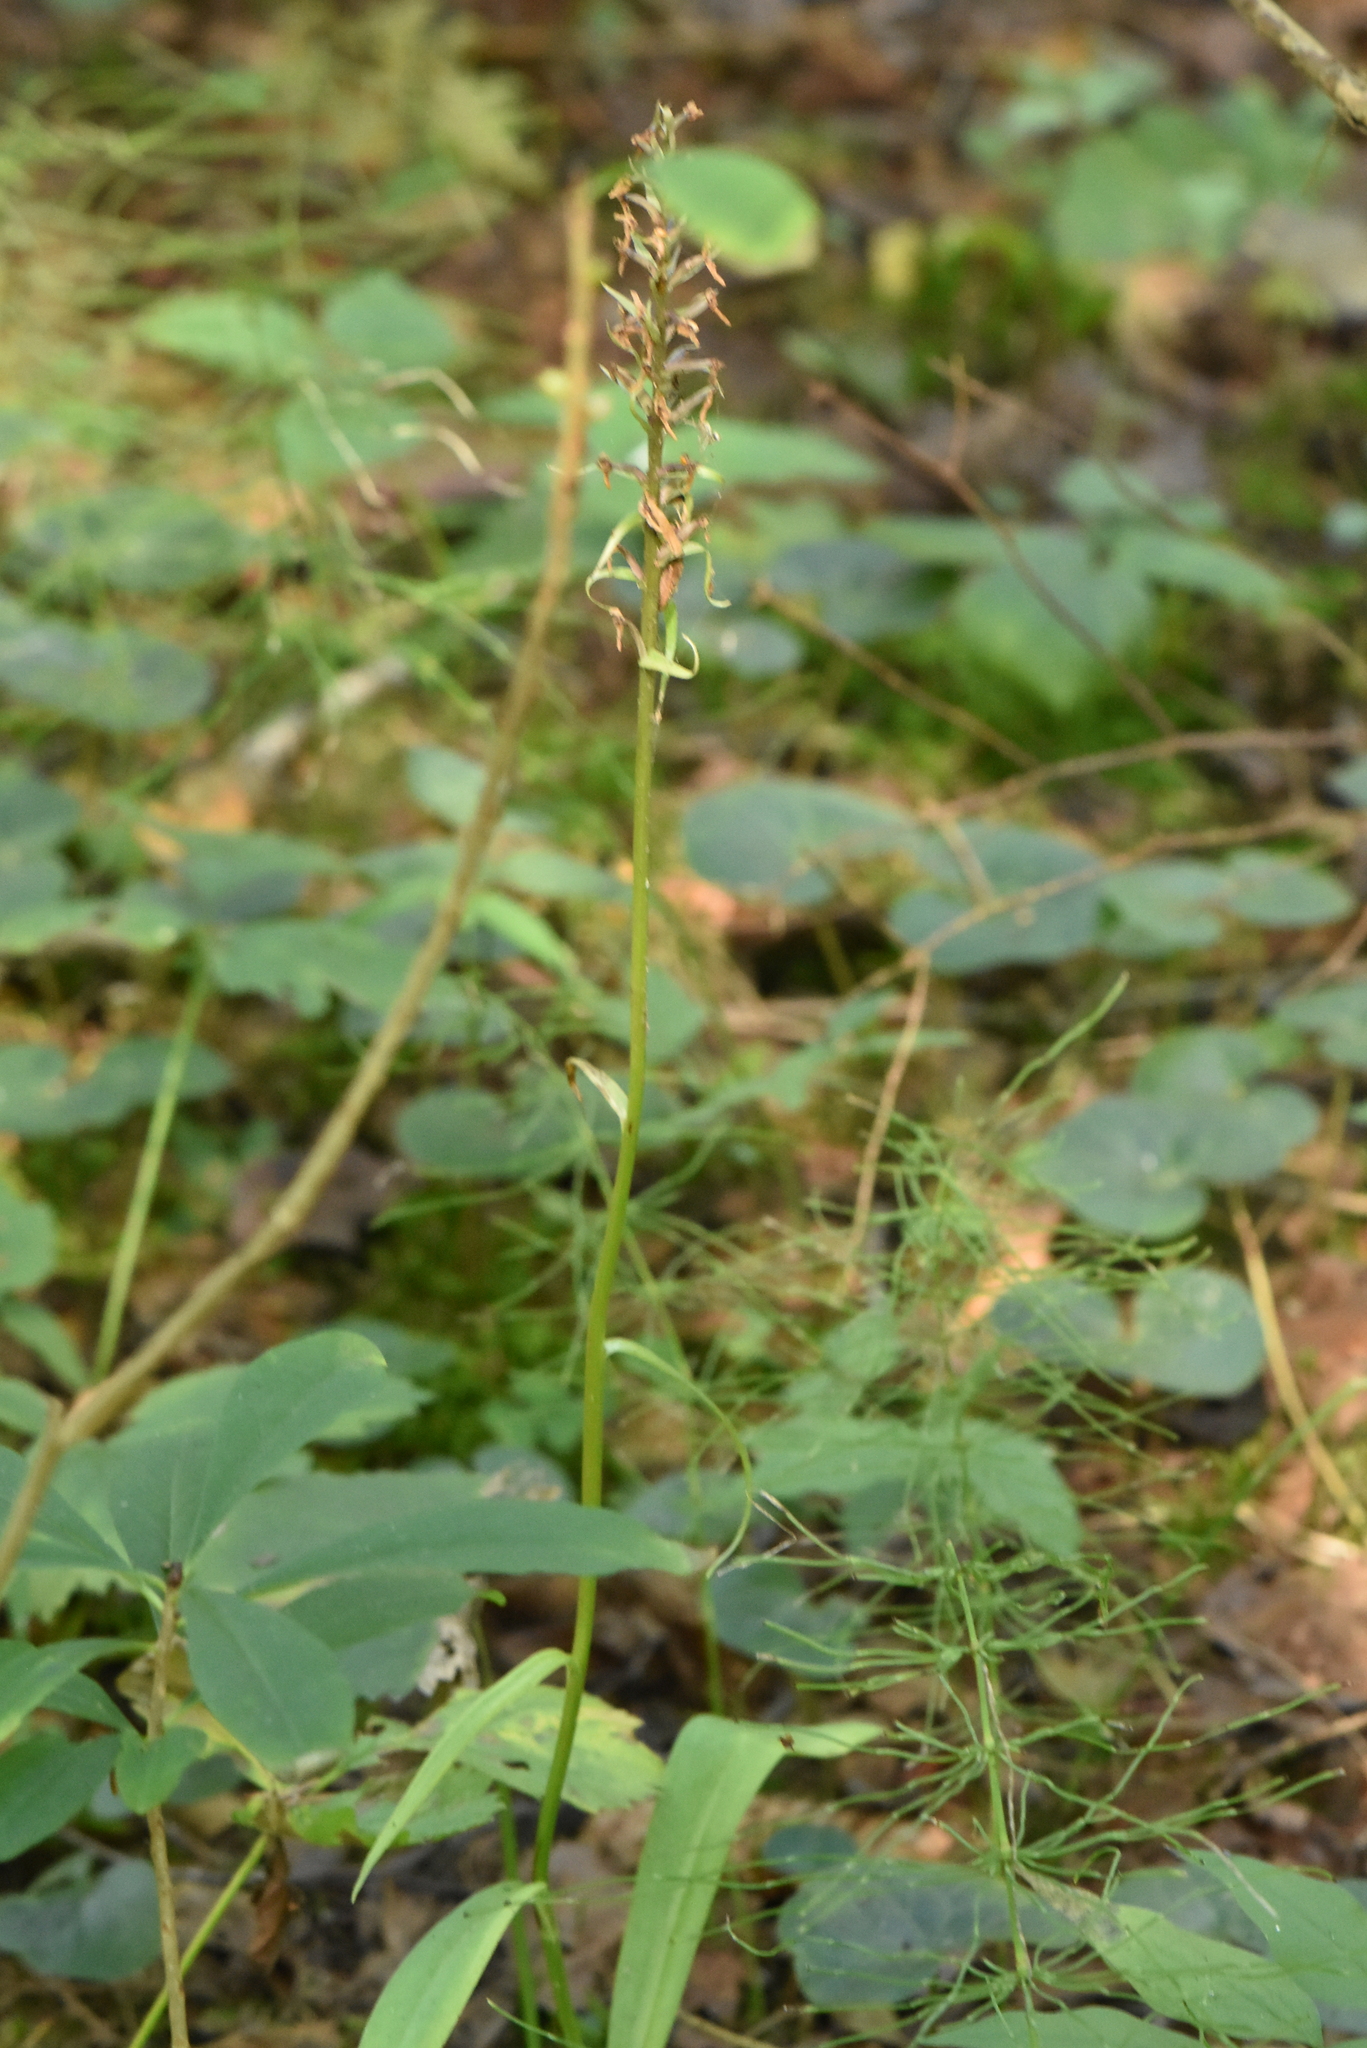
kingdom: Plantae
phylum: Tracheophyta
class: Liliopsida
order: Asparagales
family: Orchidaceae
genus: Dactylorhiza
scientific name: Dactylorhiza maculata
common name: Heath spotted-orchid
